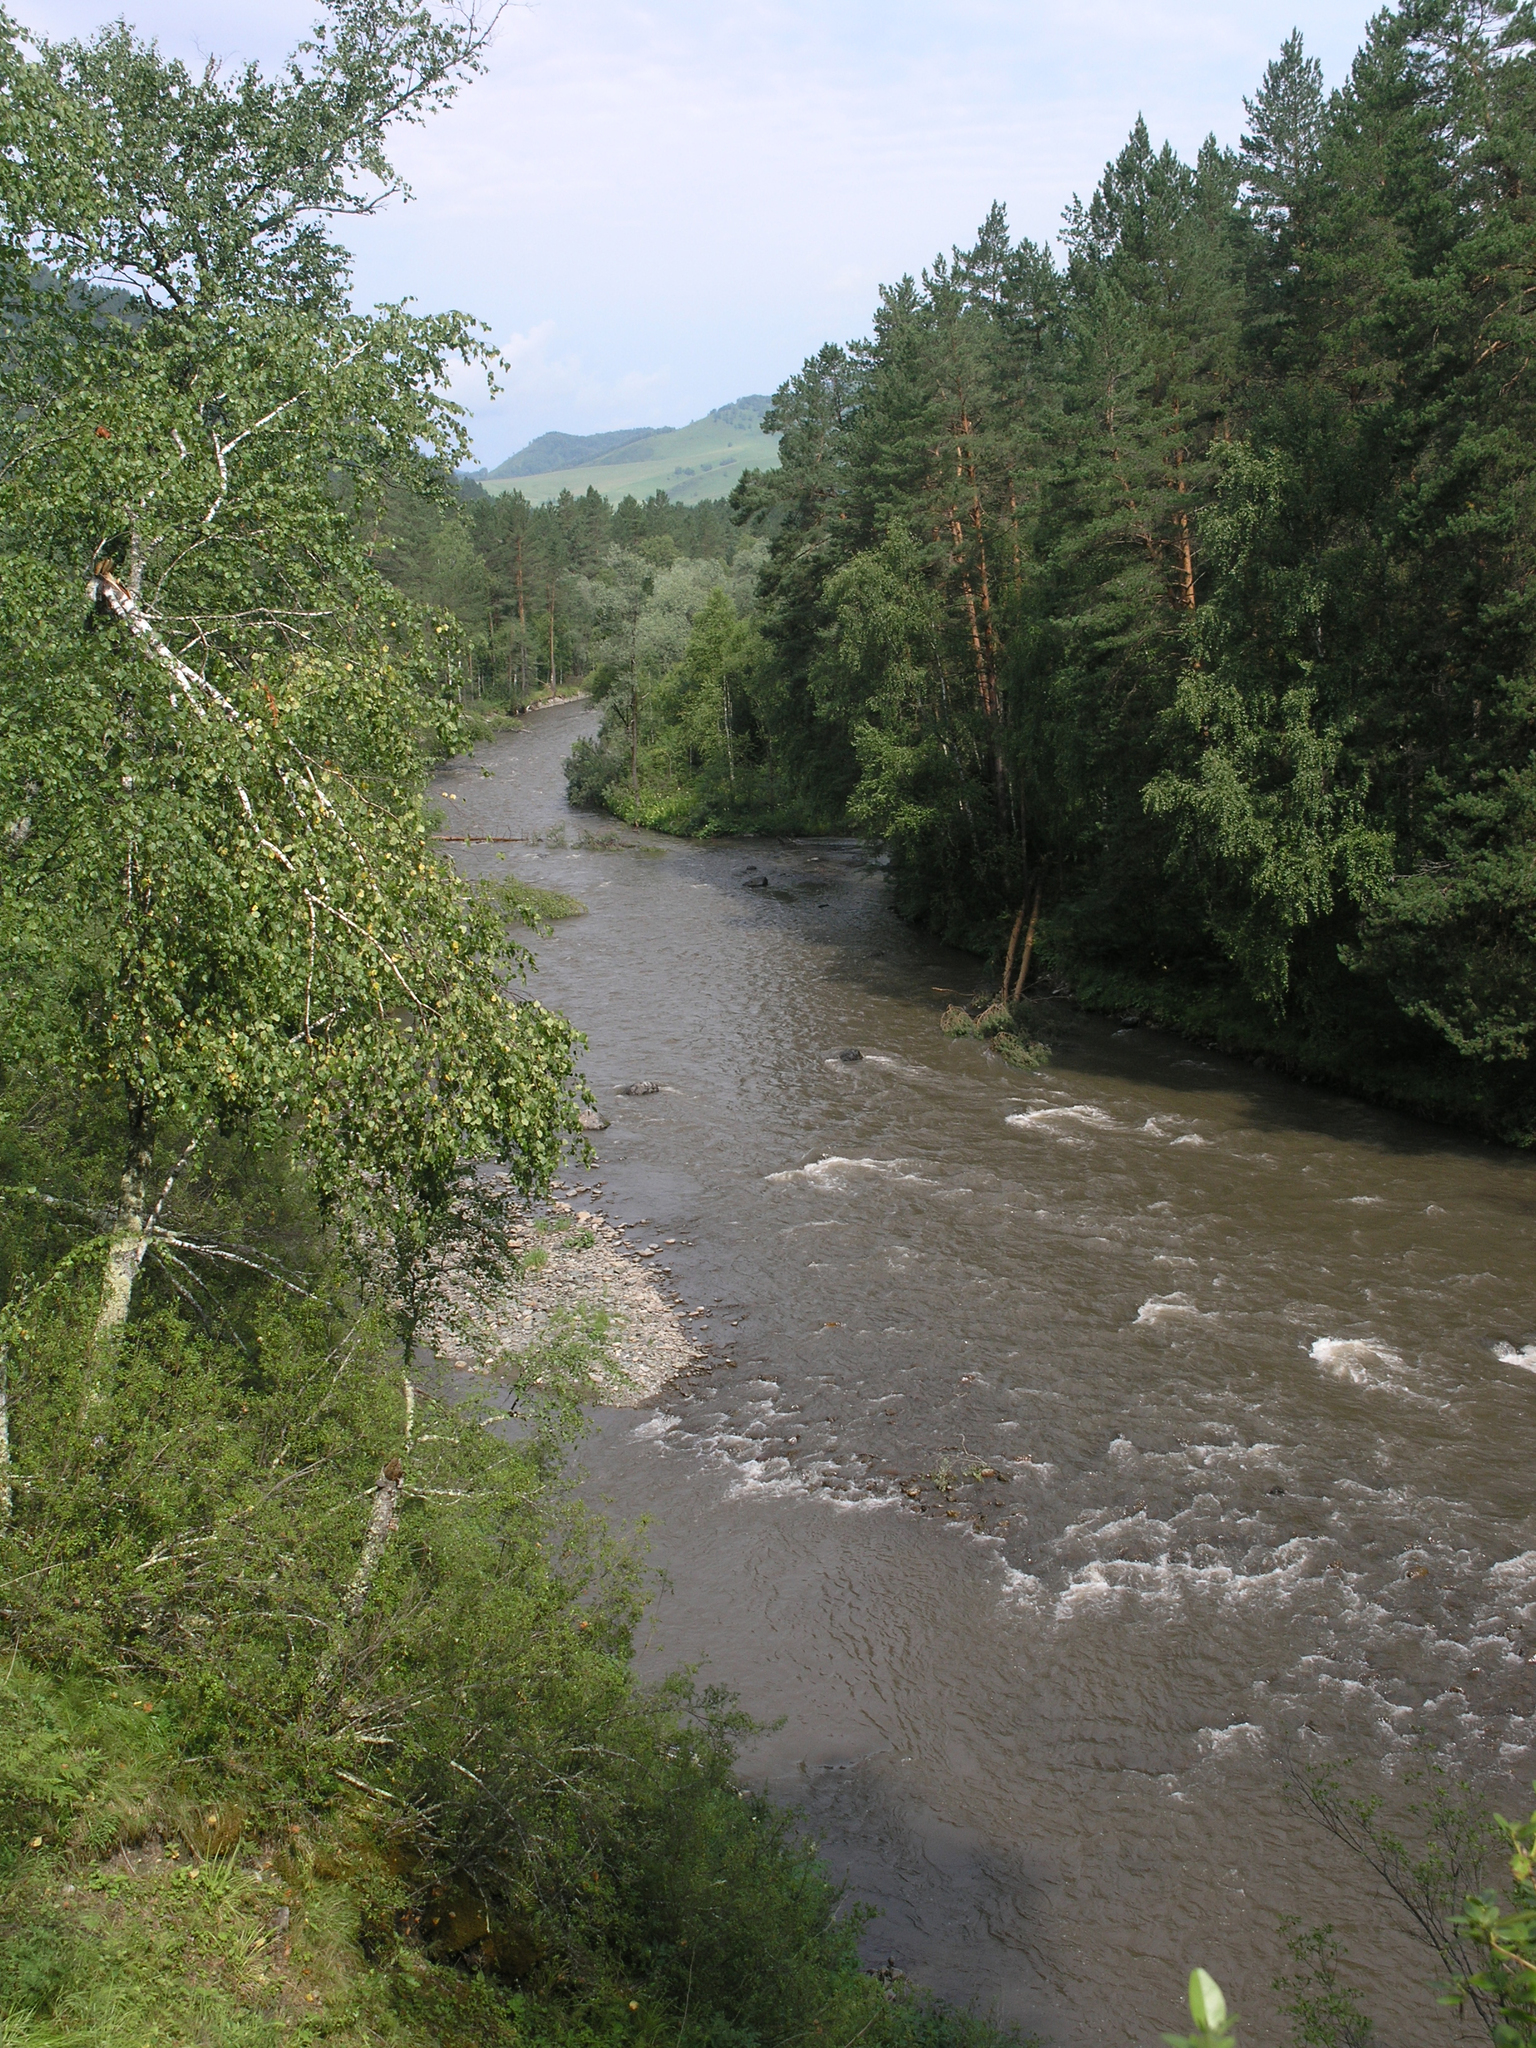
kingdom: Plantae
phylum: Tracheophyta
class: Pinopsida
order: Pinales
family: Pinaceae
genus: Pinus
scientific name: Pinus sylvestris
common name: Scots pine
